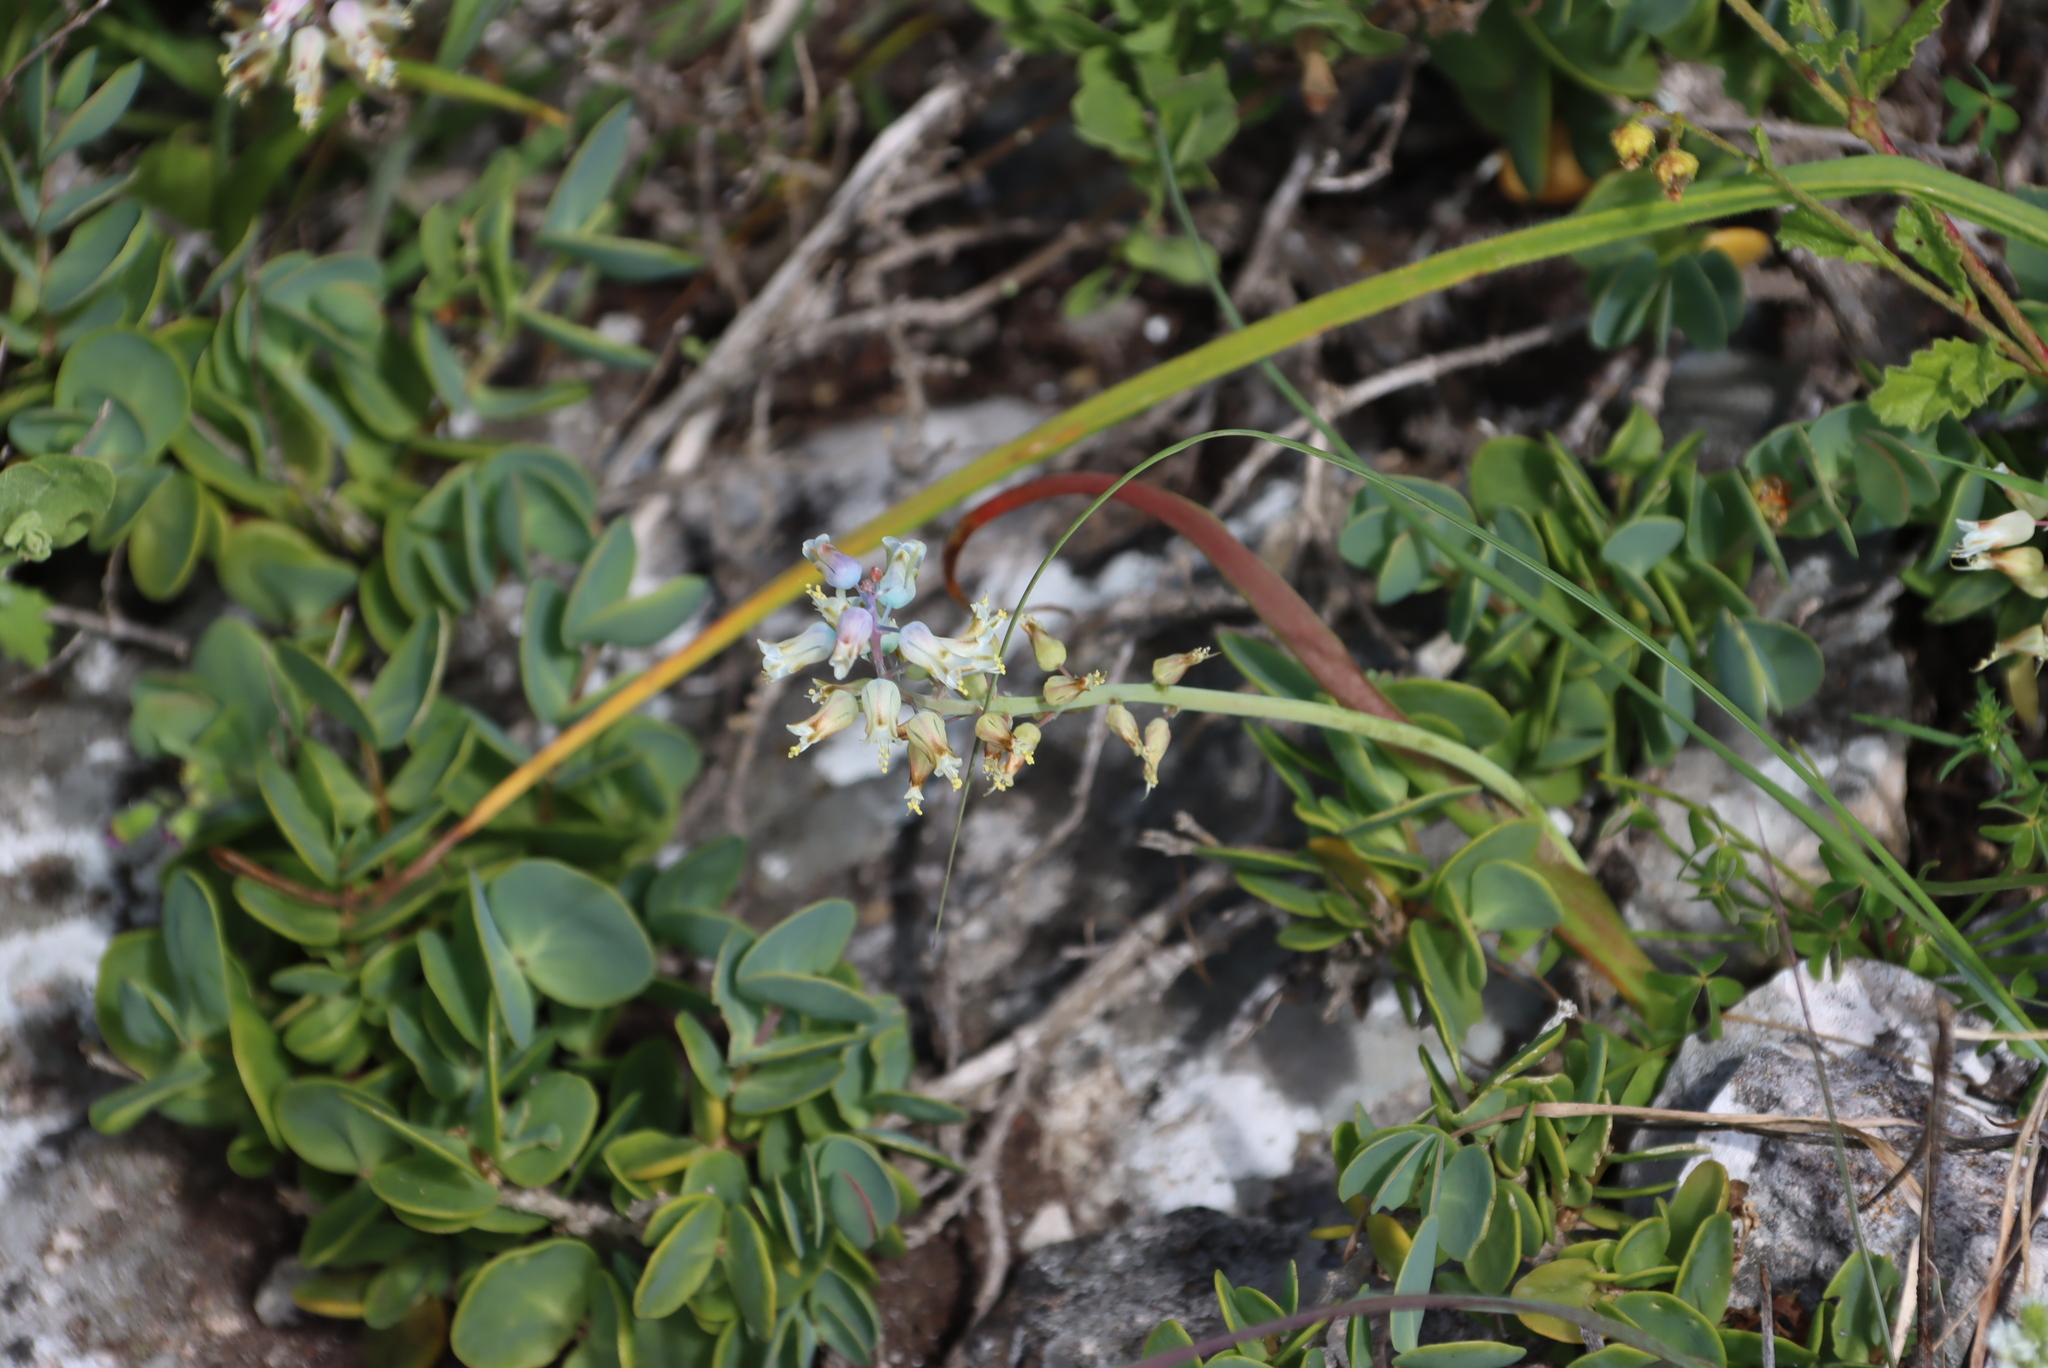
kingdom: Plantae
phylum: Tracheophyta
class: Liliopsida
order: Asparagales
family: Asparagaceae
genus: Lachenalia
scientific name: Lachenalia pallida
